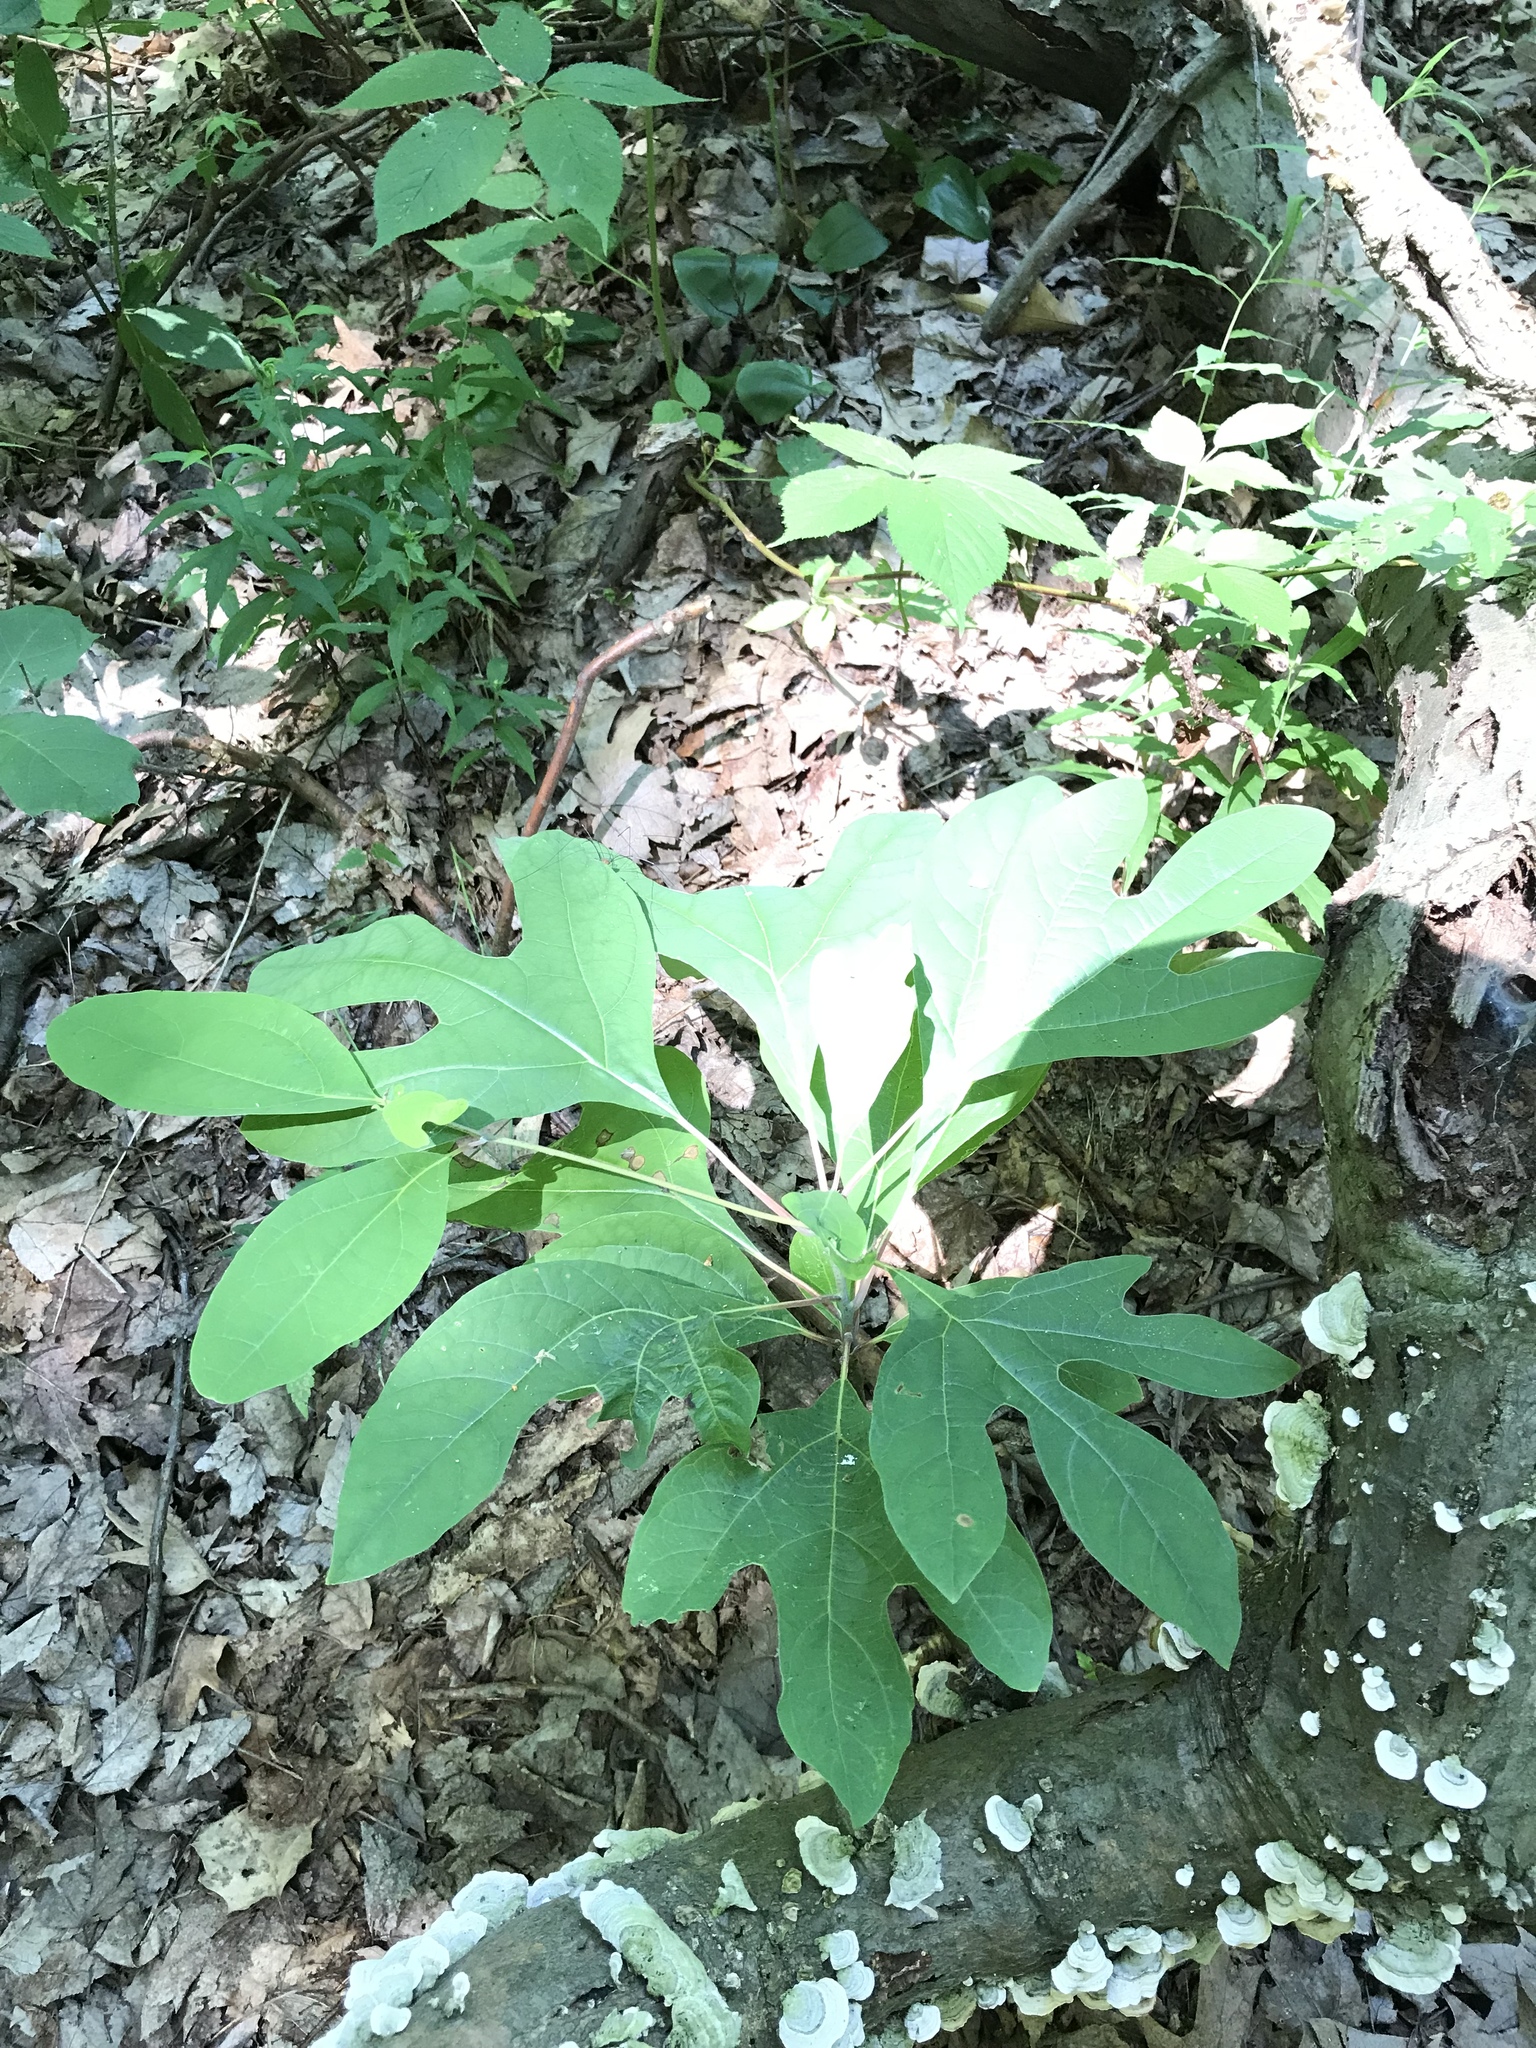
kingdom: Plantae
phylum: Tracheophyta
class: Magnoliopsida
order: Laurales
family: Lauraceae
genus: Sassafras
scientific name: Sassafras albidum
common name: Sassafras
